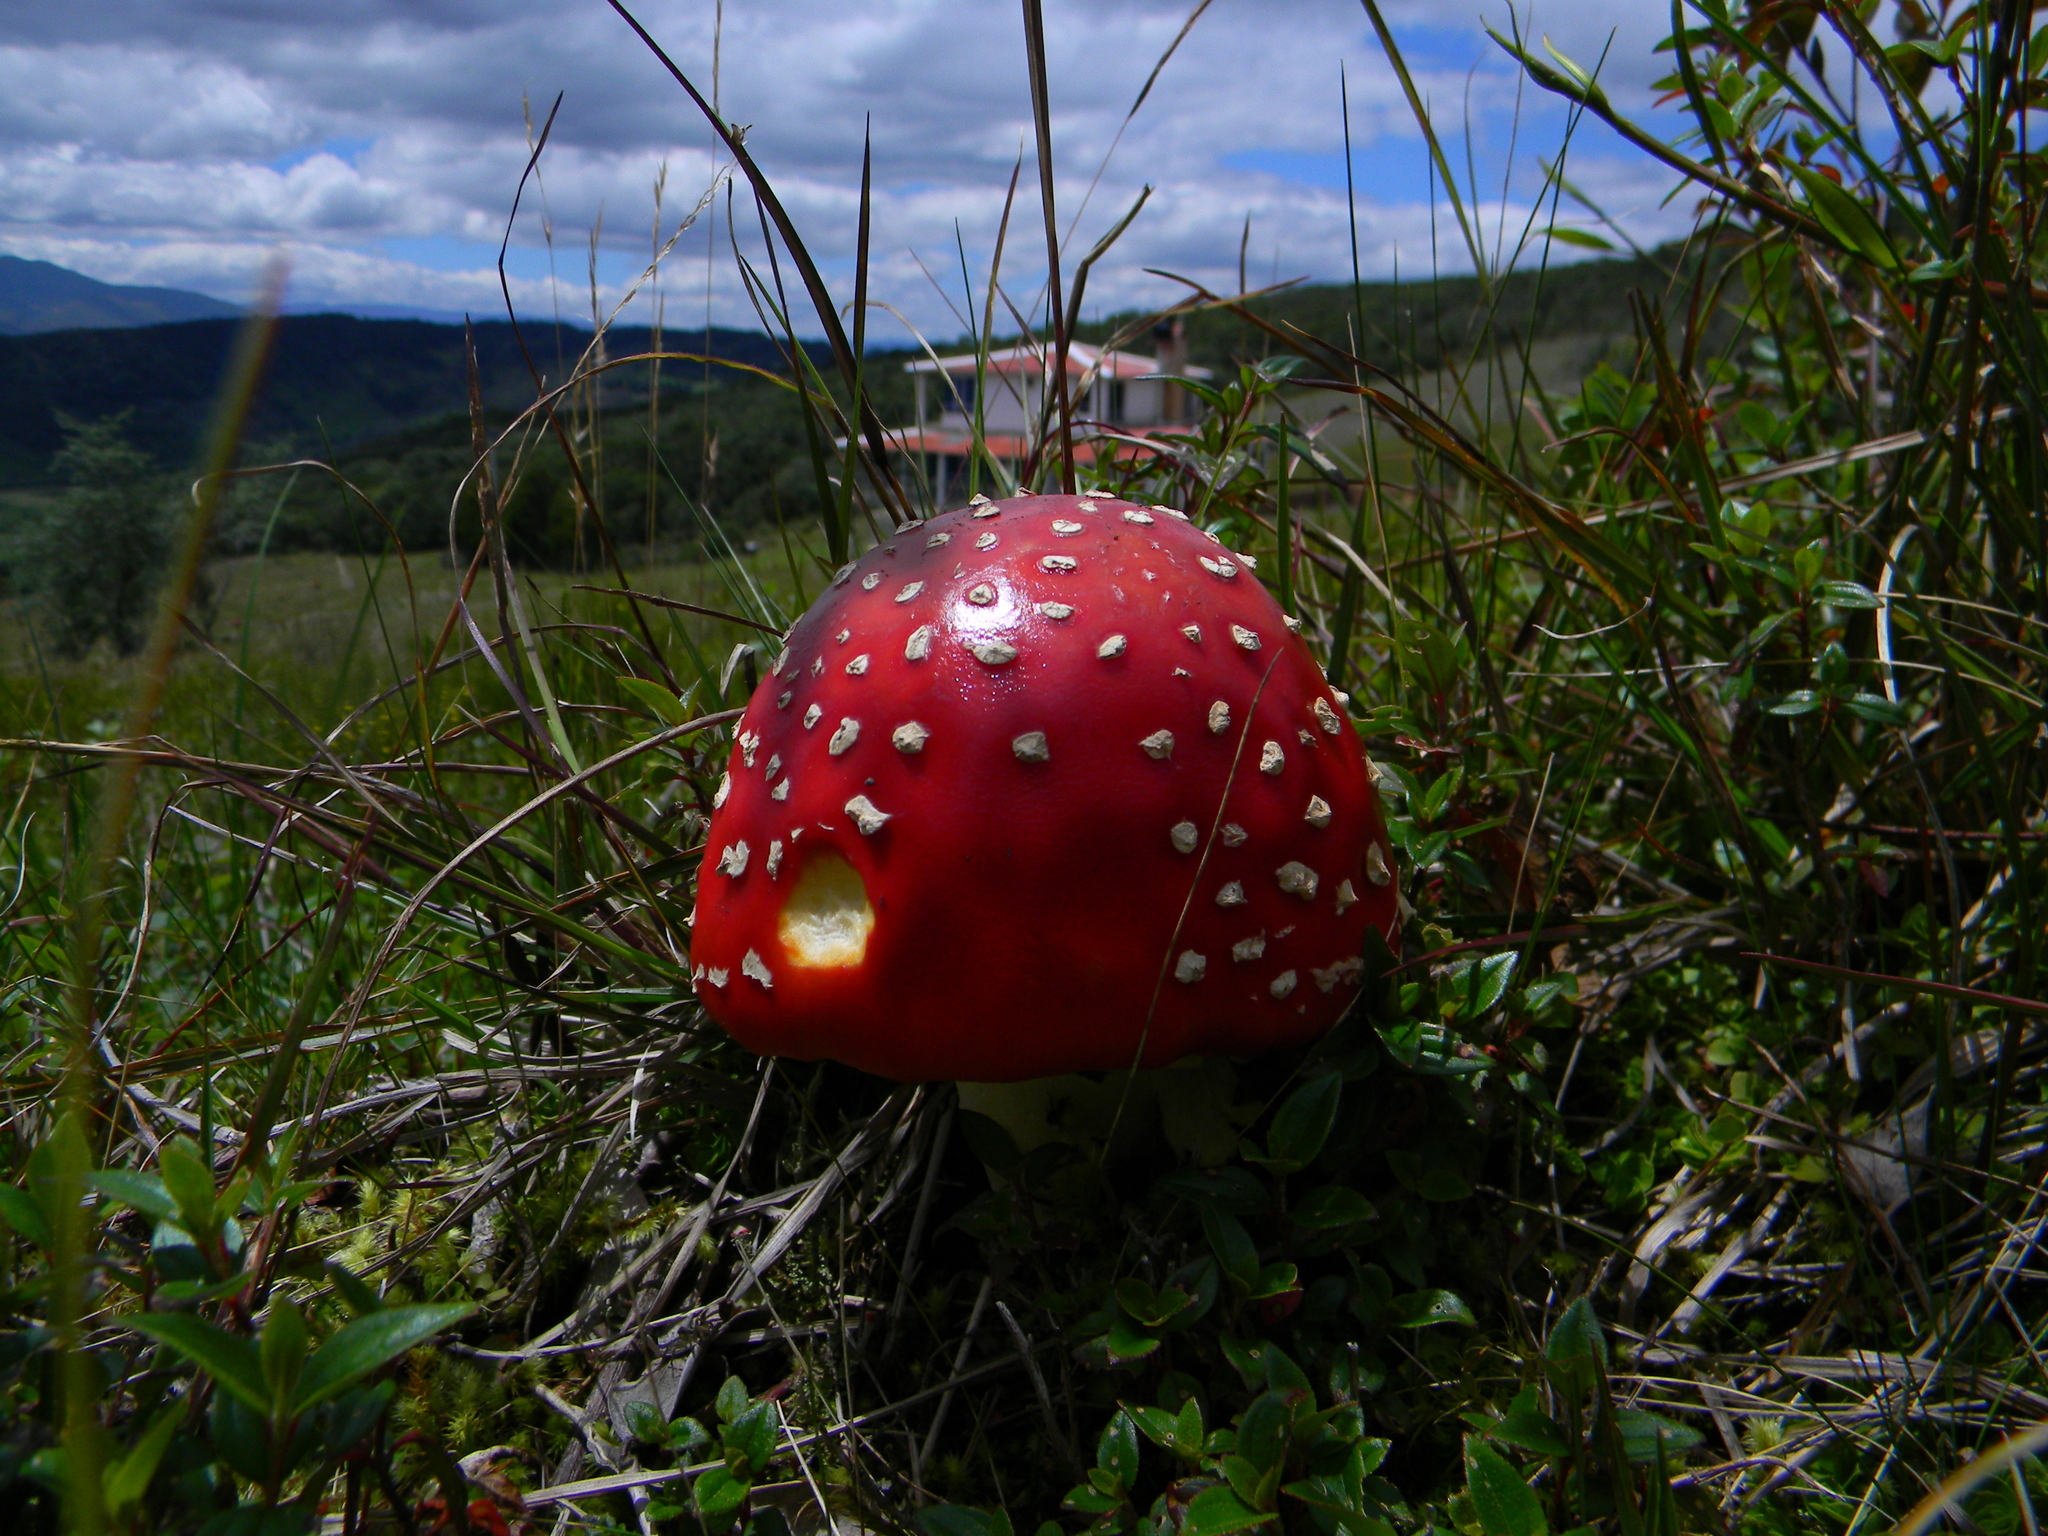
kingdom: Fungi
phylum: Basidiomycota
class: Agaricomycetes
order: Agaricales
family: Amanitaceae
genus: Amanita
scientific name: Amanita muscaria
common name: Fly agaric
